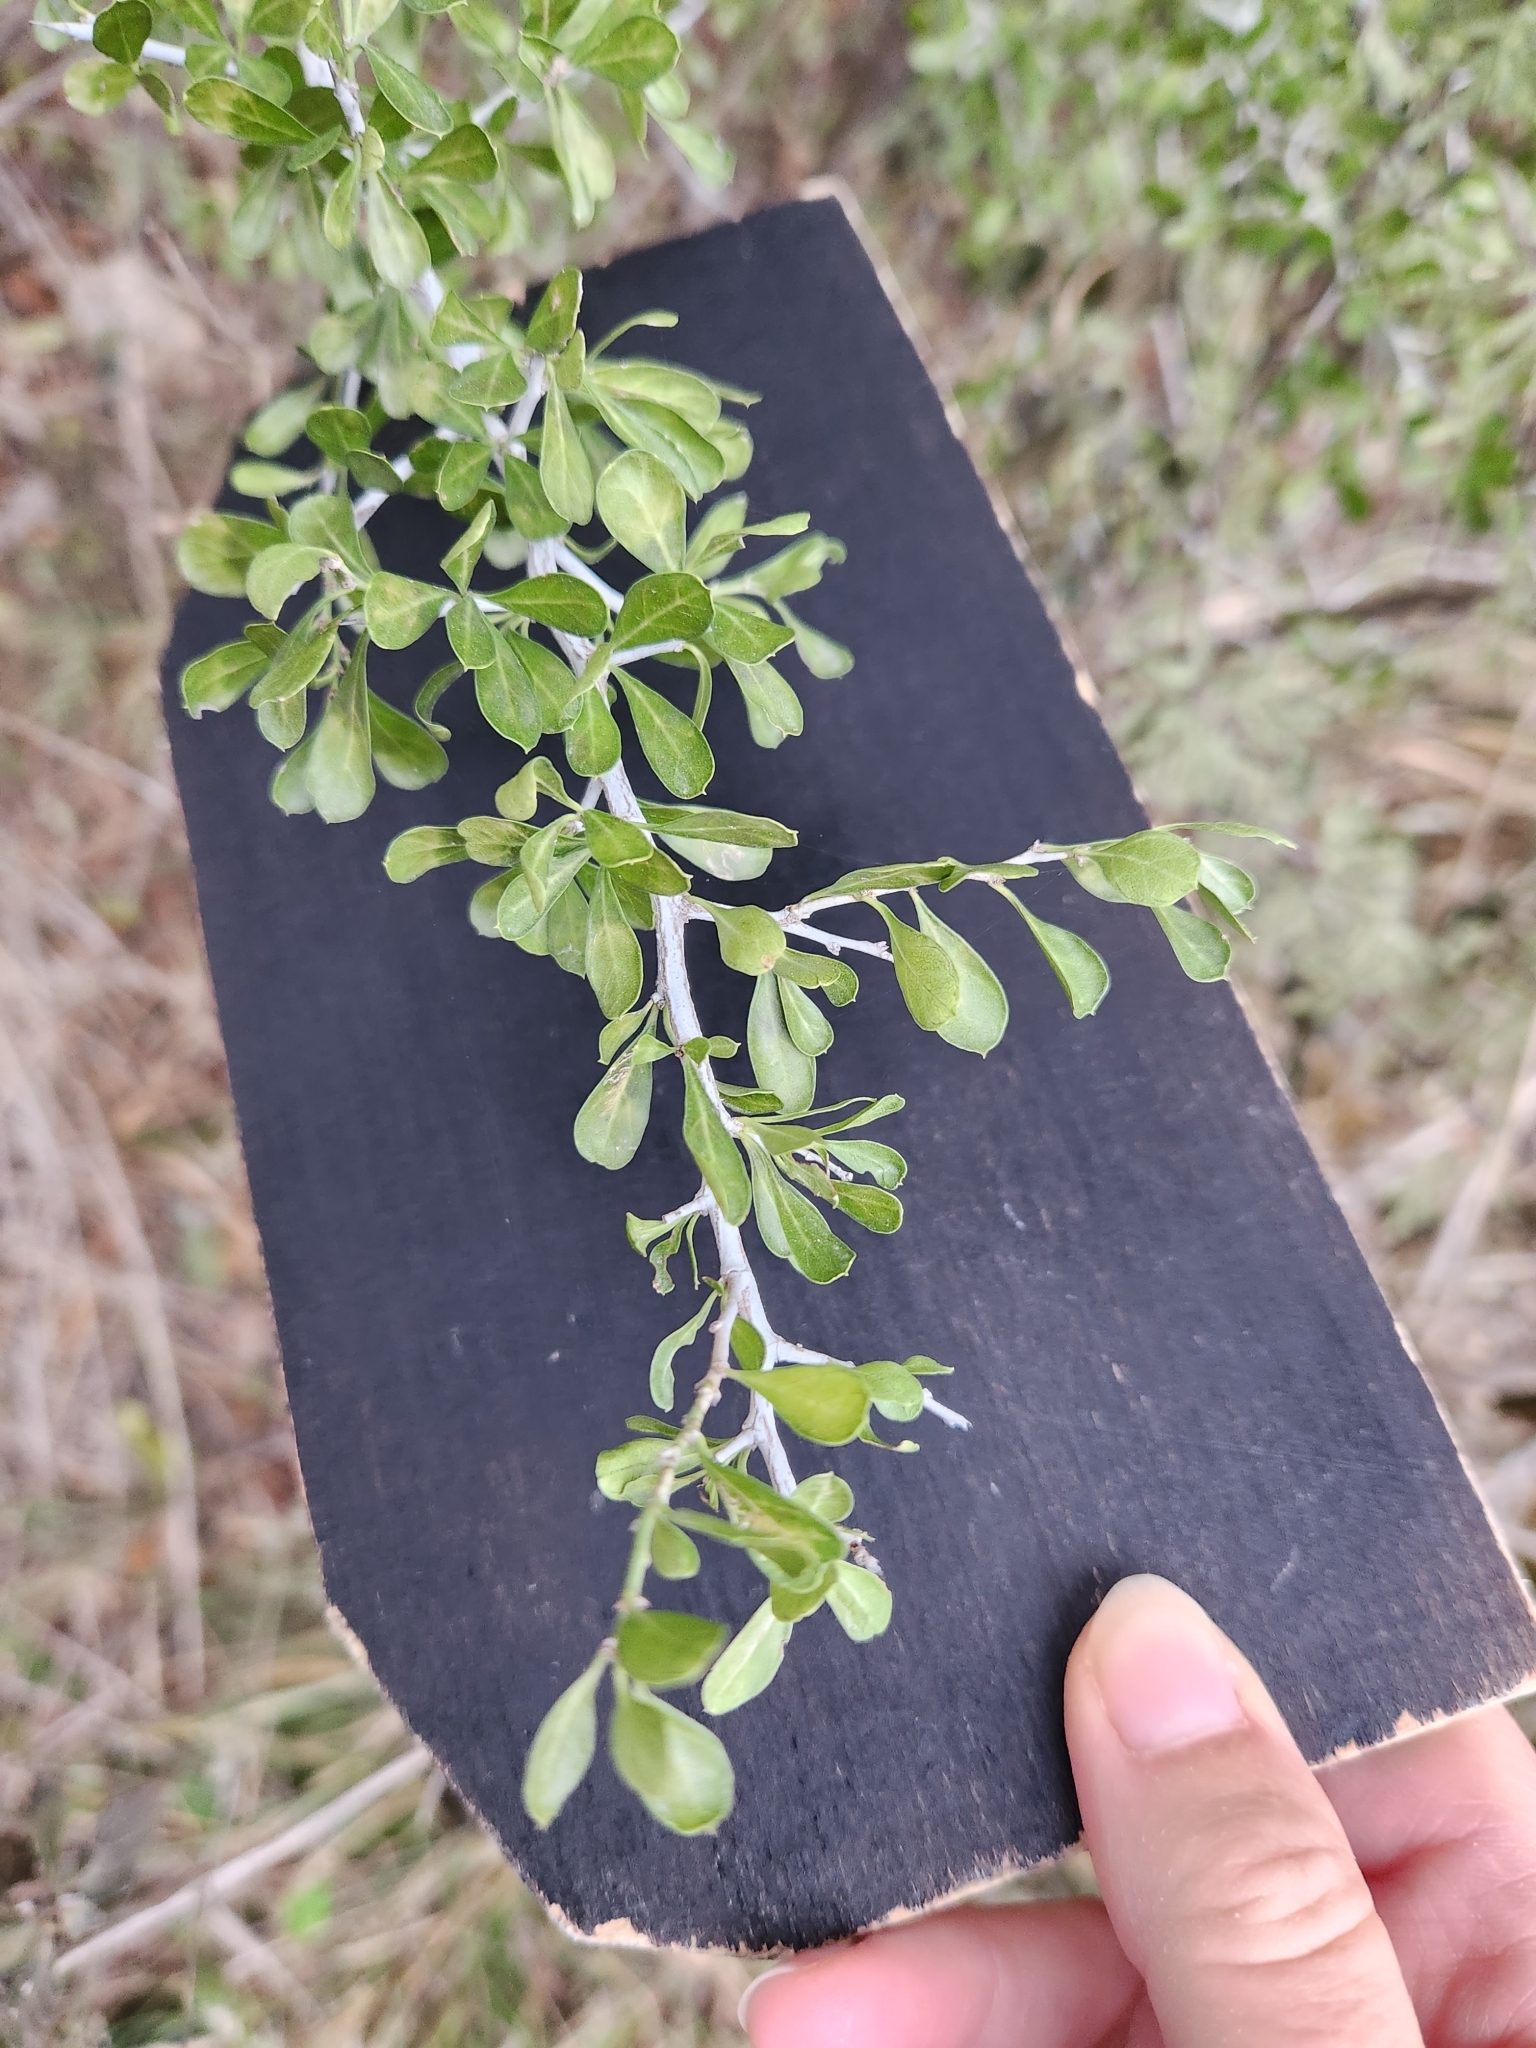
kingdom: Plantae
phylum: Tracheophyta
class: Magnoliopsida
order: Rosales
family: Rhamnaceae
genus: Condalia
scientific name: Condalia hookeri
